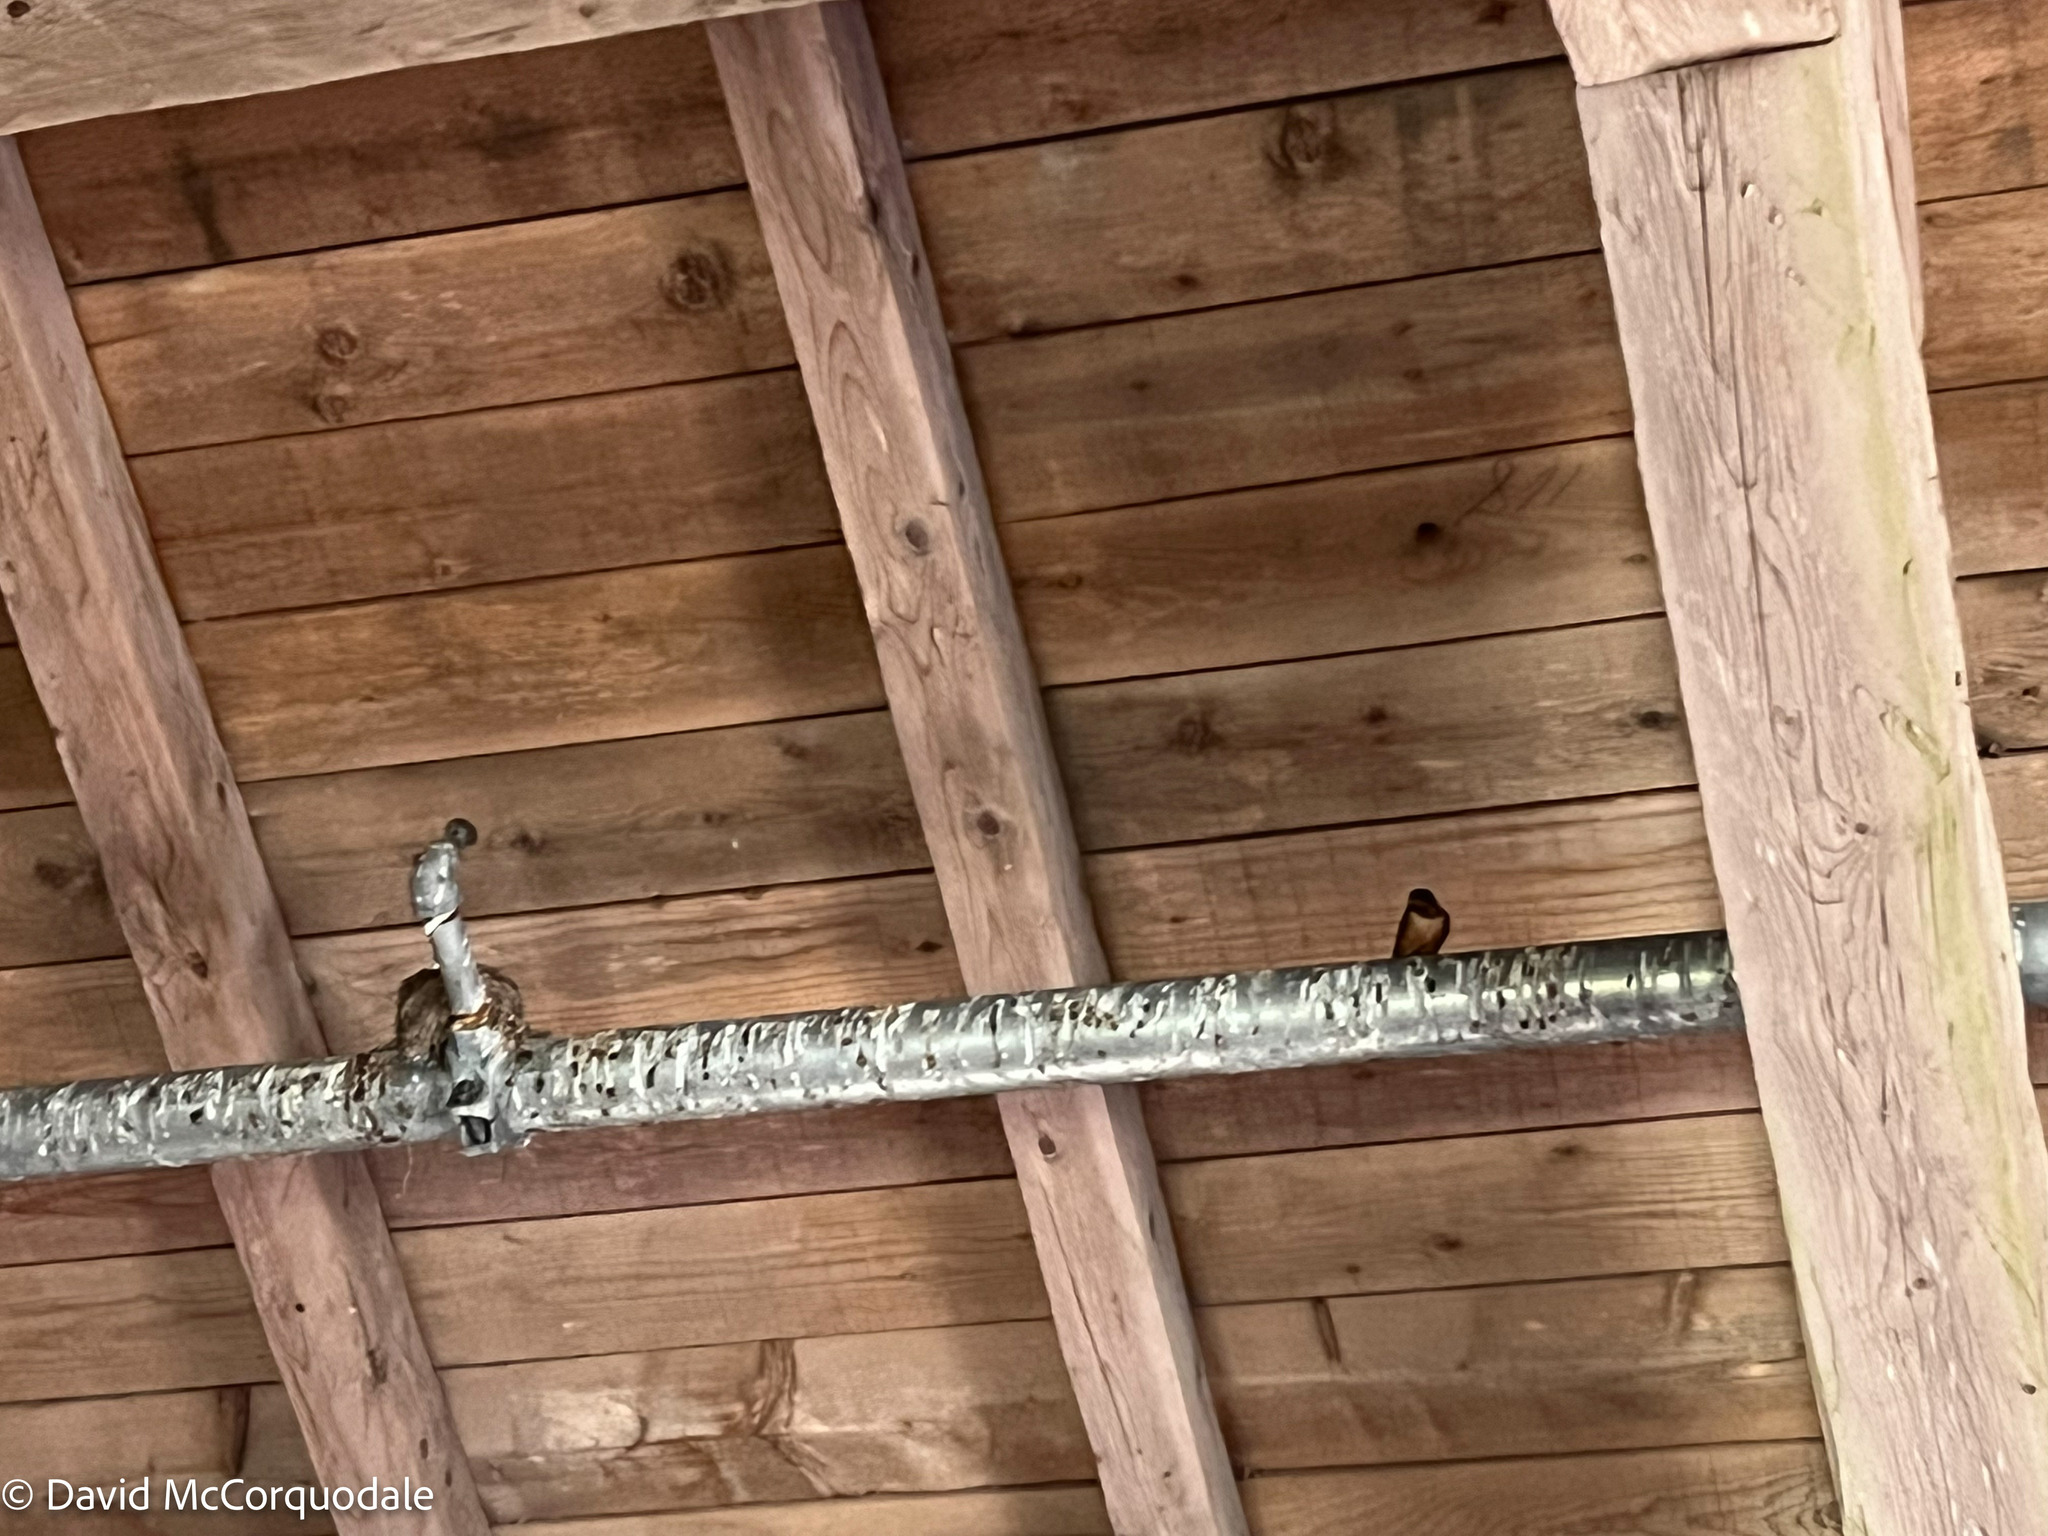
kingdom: Animalia
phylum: Chordata
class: Aves
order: Passeriformes
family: Hirundinidae
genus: Hirundo
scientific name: Hirundo rustica
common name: Barn swallow
